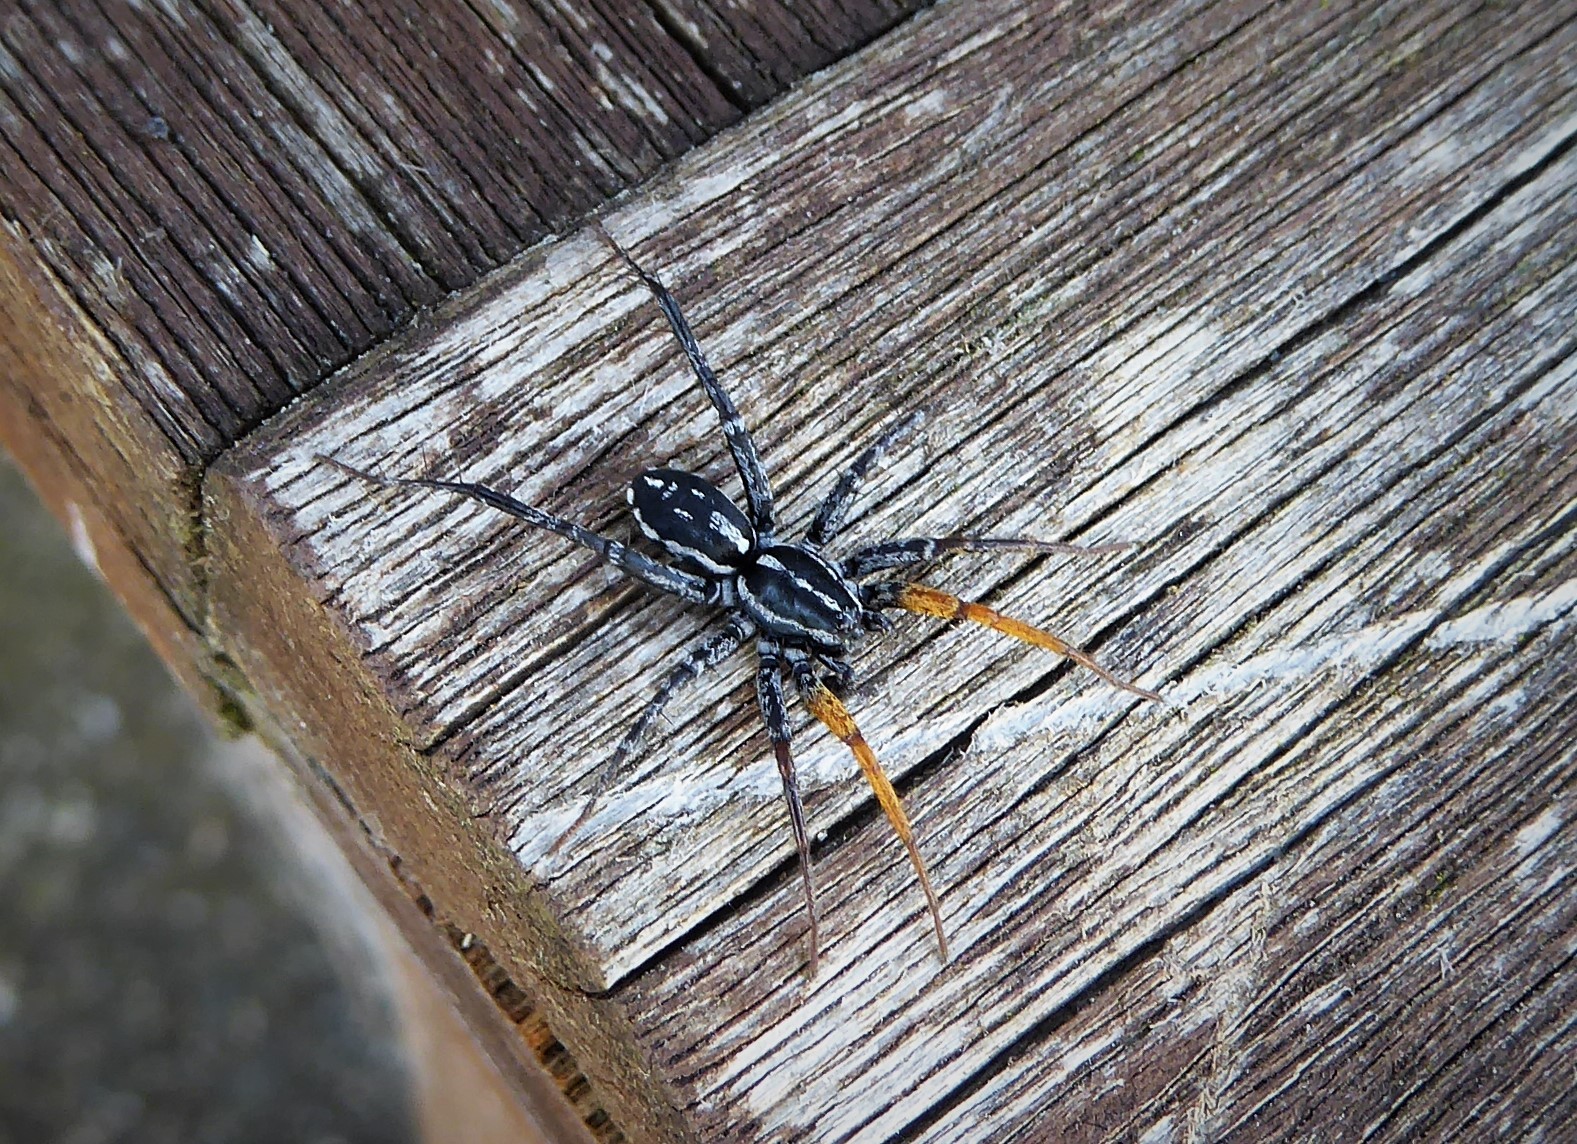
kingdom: Animalia
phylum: Arthropoda
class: Arachnida
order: Araneae
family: Corinnidae
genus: Nyssus
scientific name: Nyssus coloripes
